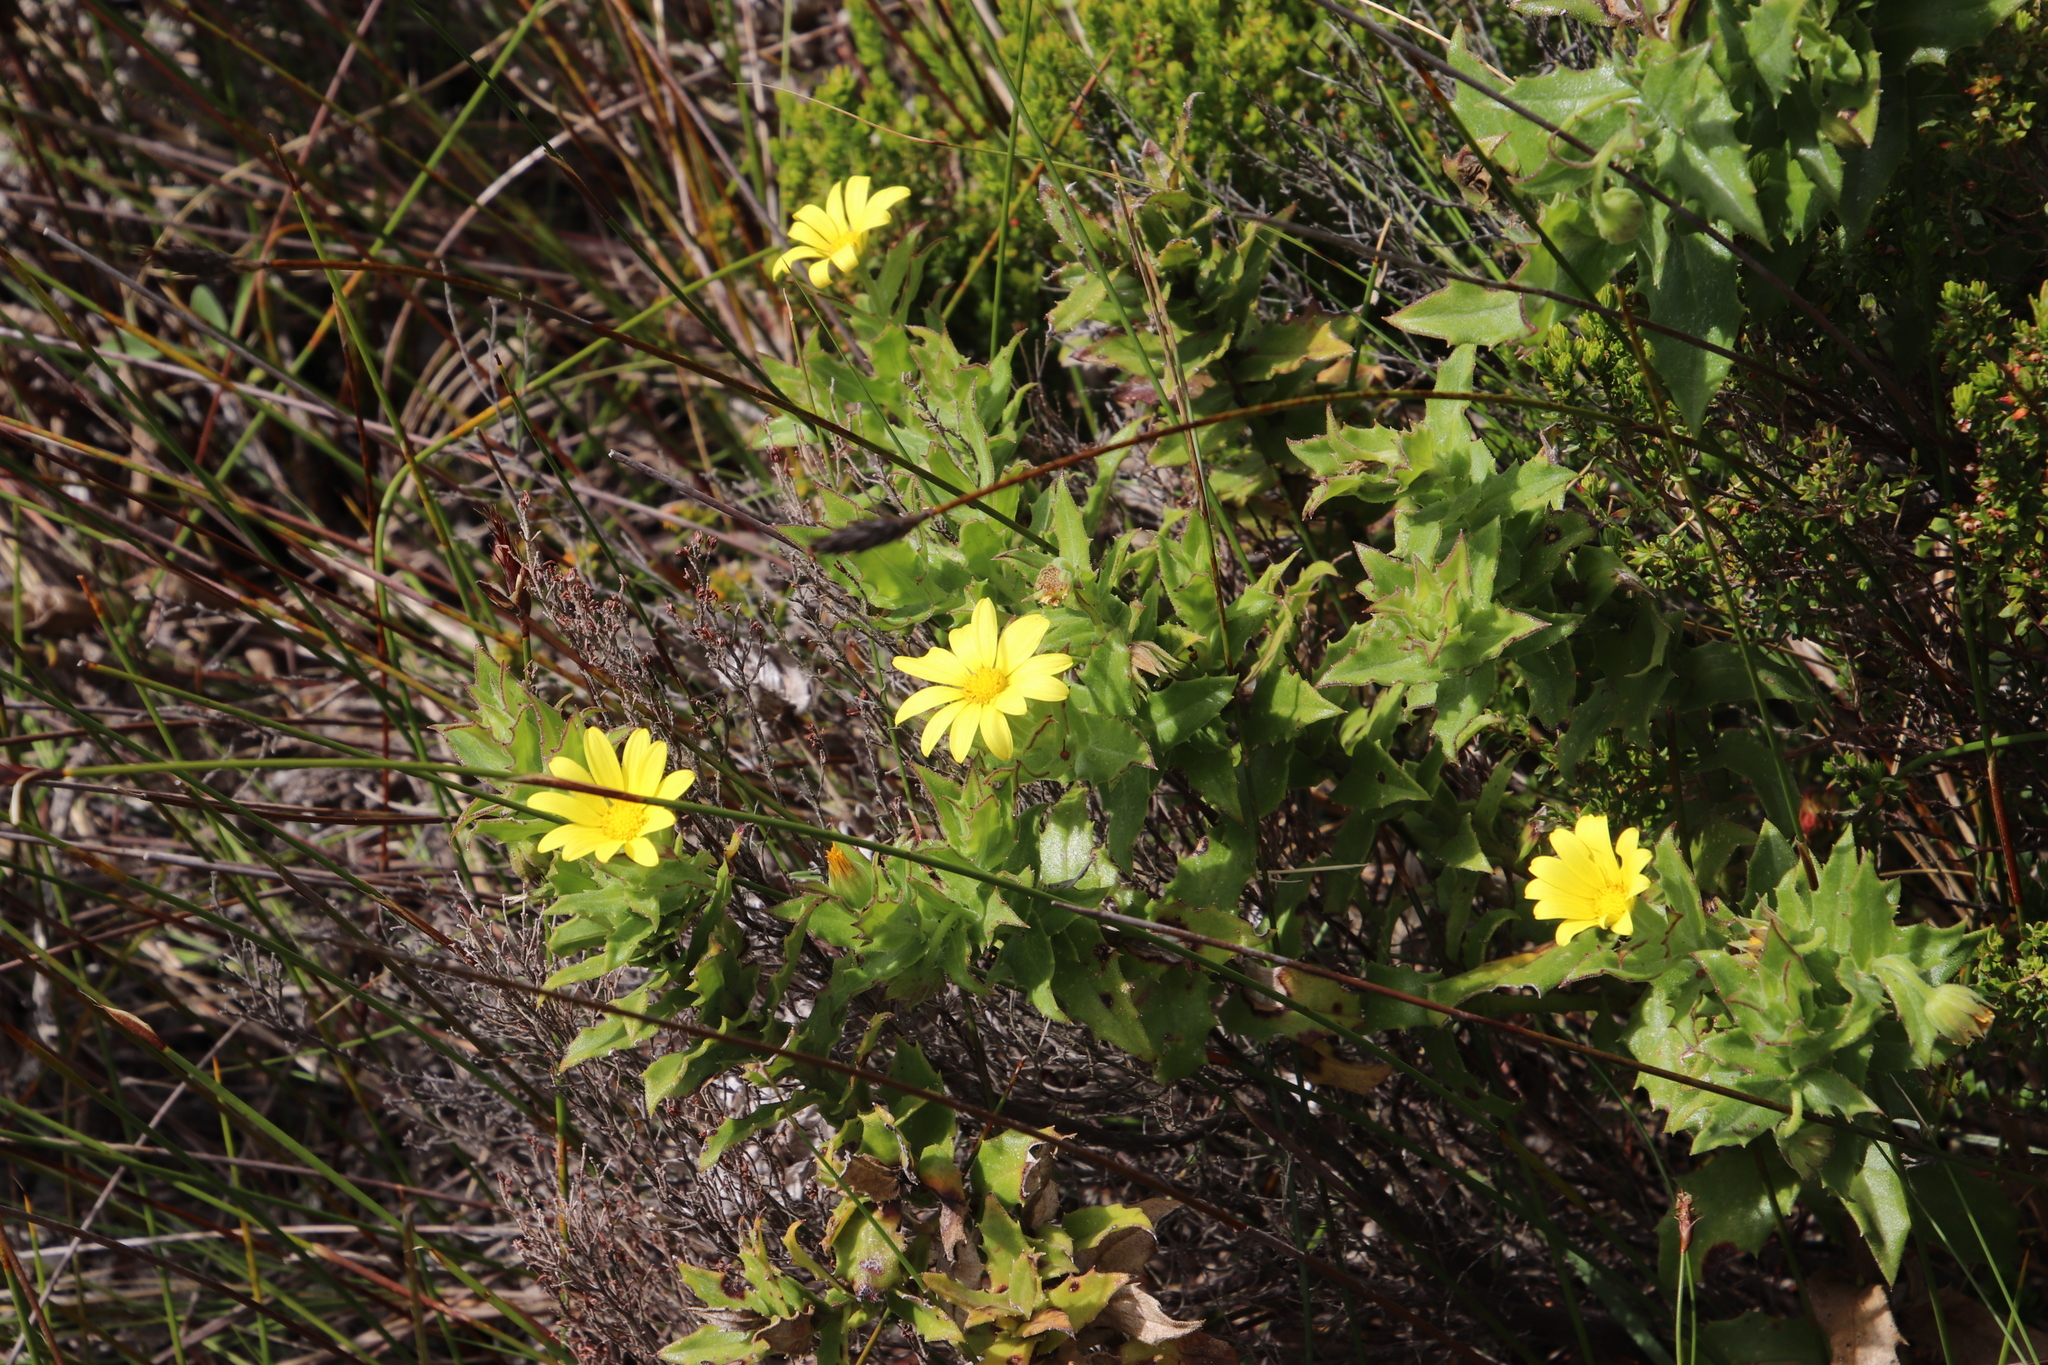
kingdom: Plantae
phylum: Tracheophyta
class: Magnoliopsida
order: Asterales
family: Asteraceae
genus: Osteospermum
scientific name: Osteospermum ilicifolium
